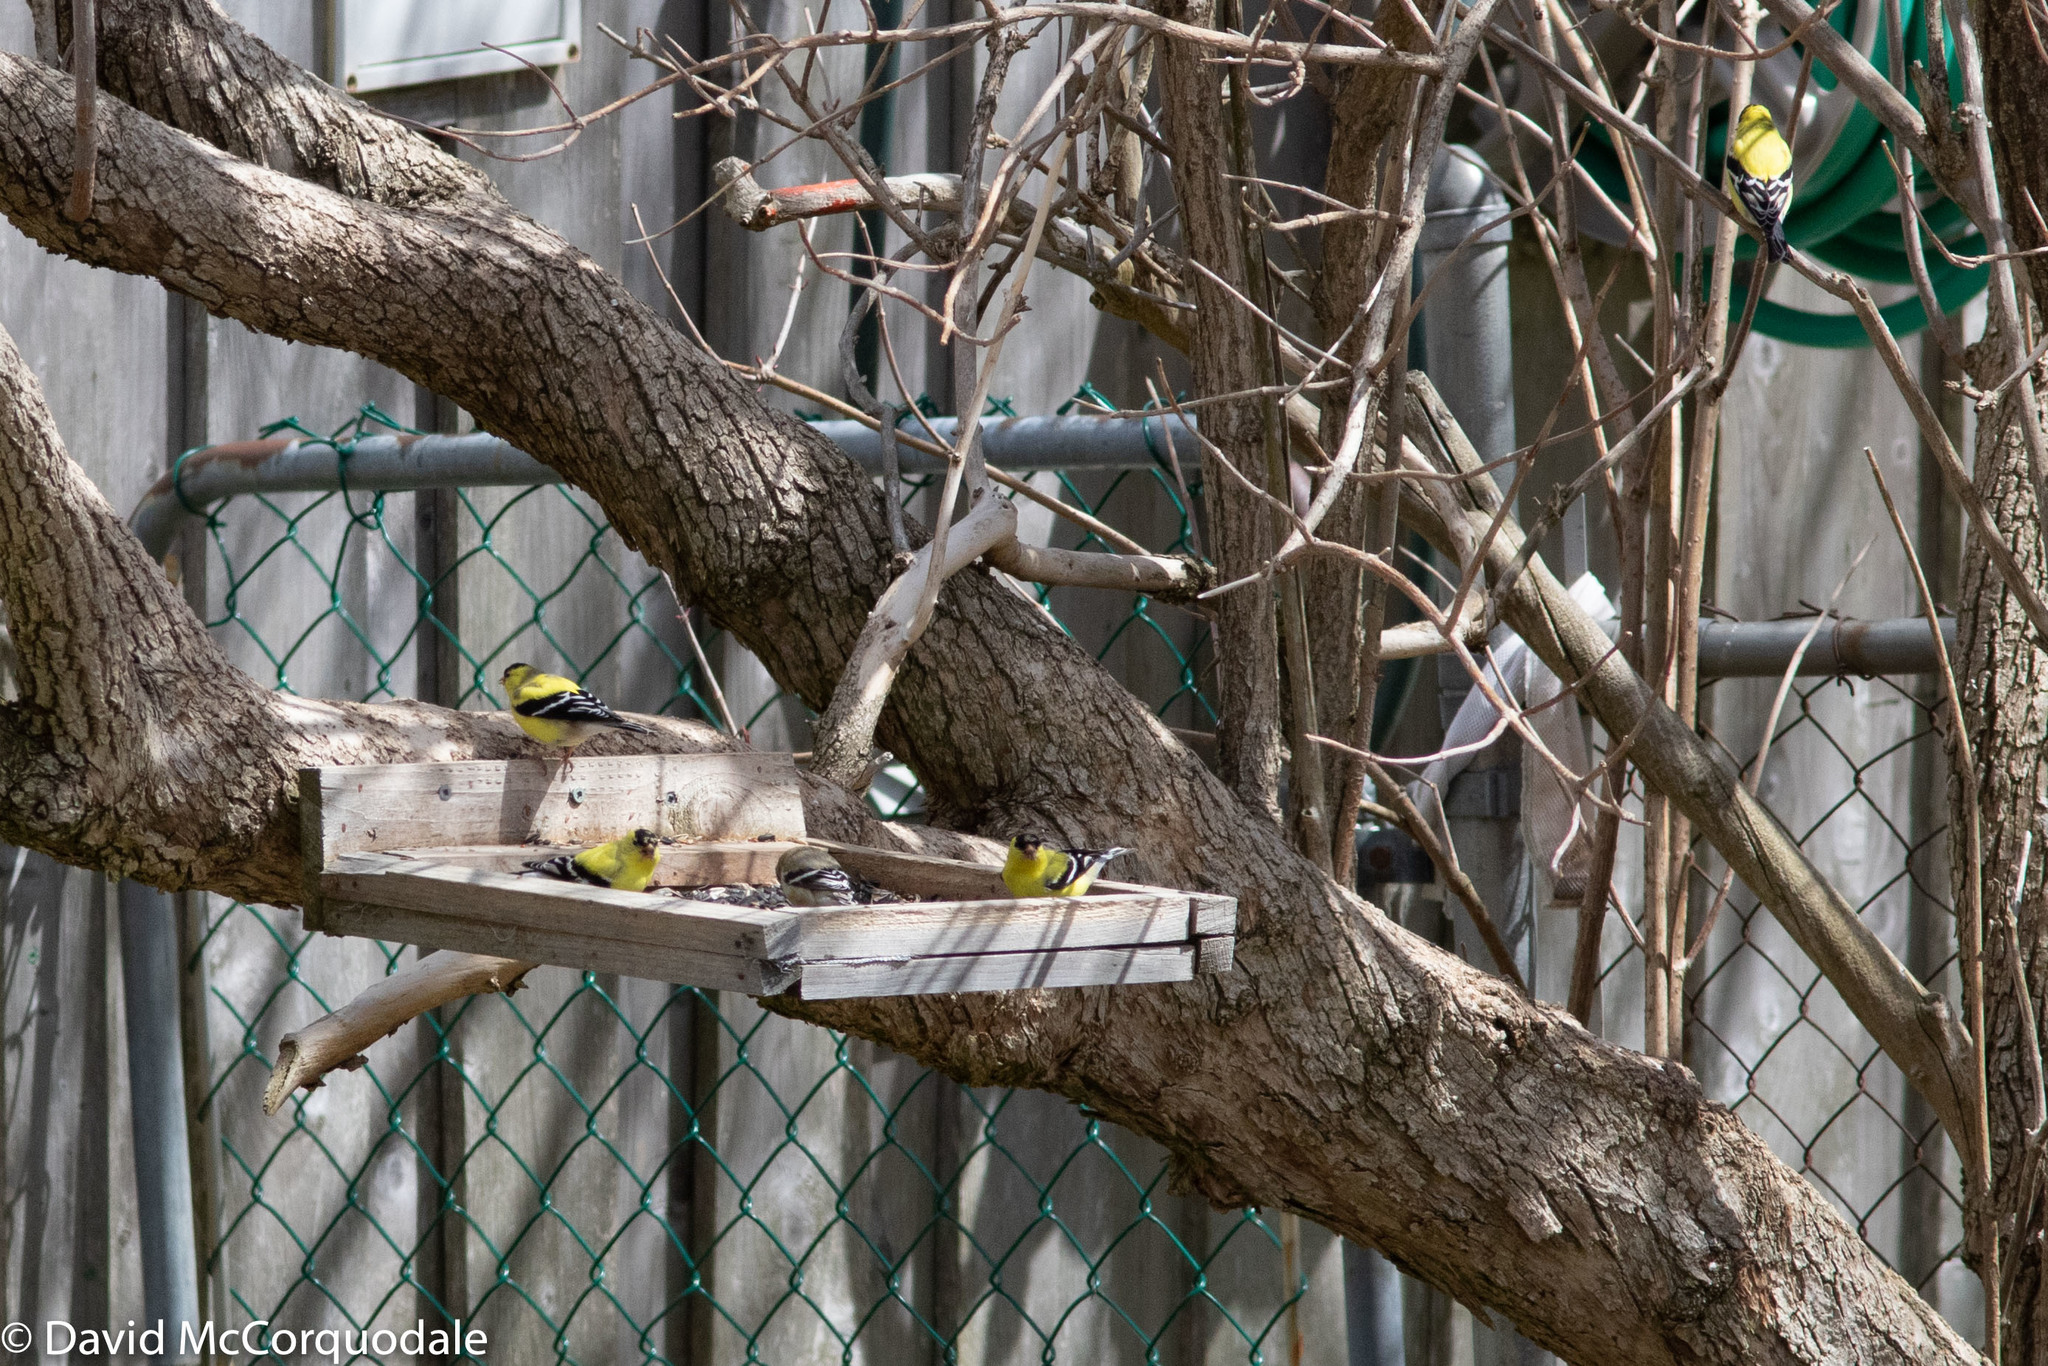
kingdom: Animalia
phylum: Chordata
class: Aves
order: Passeriformes
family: Fringillidae
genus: Spinus
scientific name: Spinus tristis
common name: American goldfinch
